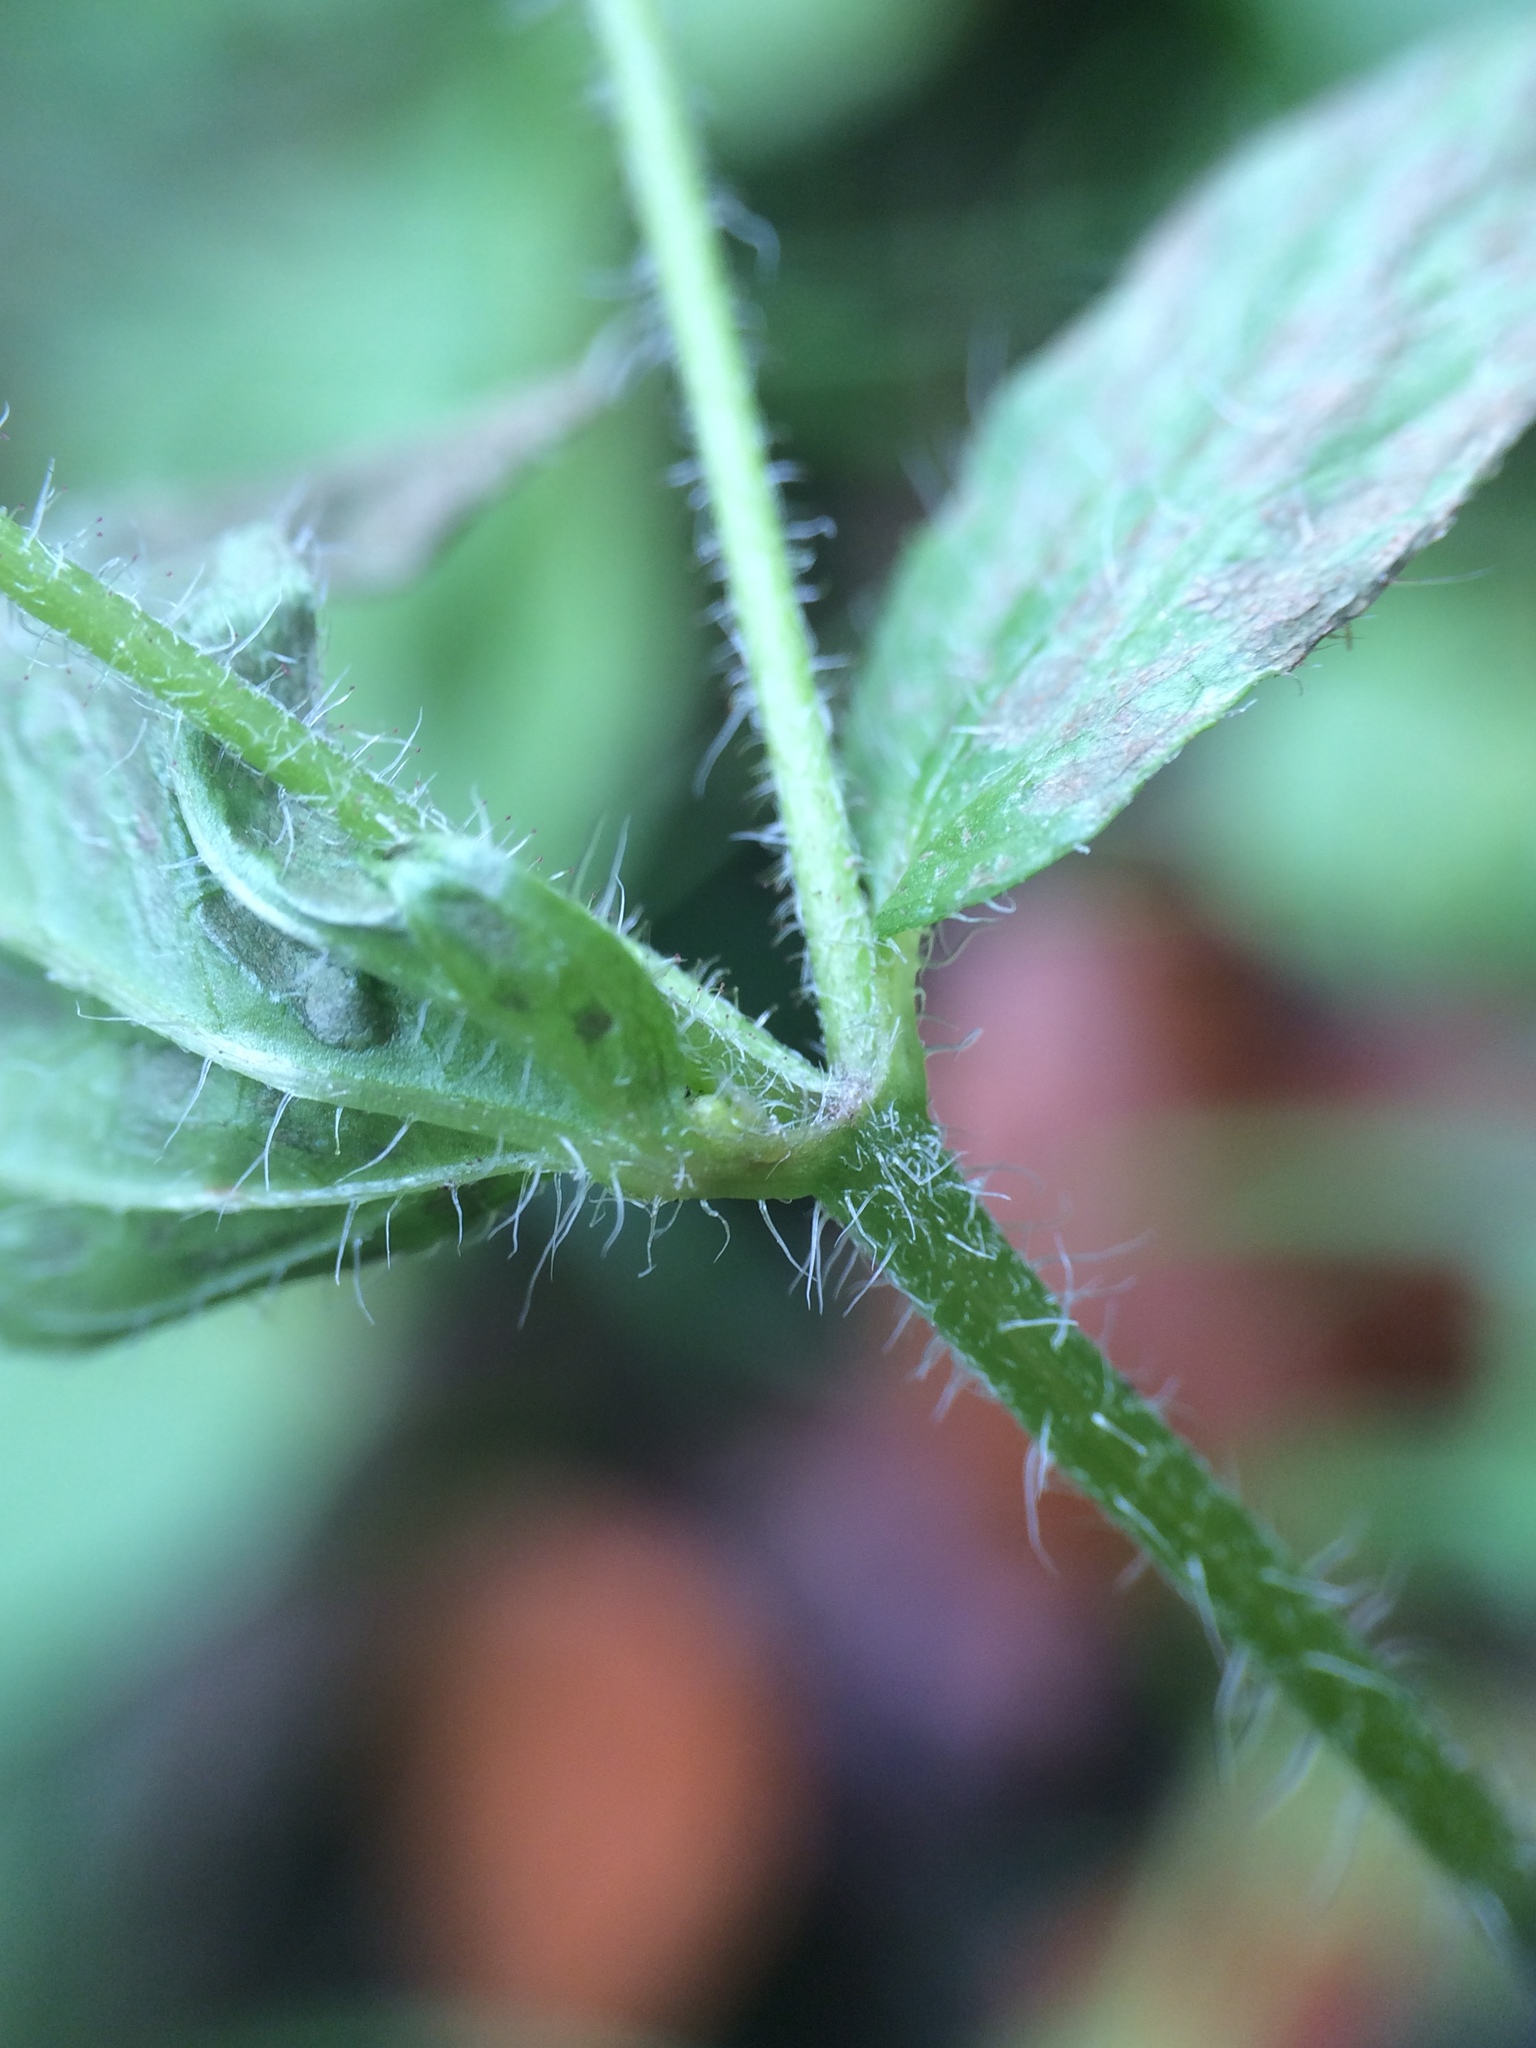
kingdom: Plantae
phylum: Tracheophyta
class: Magnoliopsida
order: Asterales
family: Asteraceae
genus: Galinsoga
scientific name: Galinsoga quadriradiata
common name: Shaggy soldier
